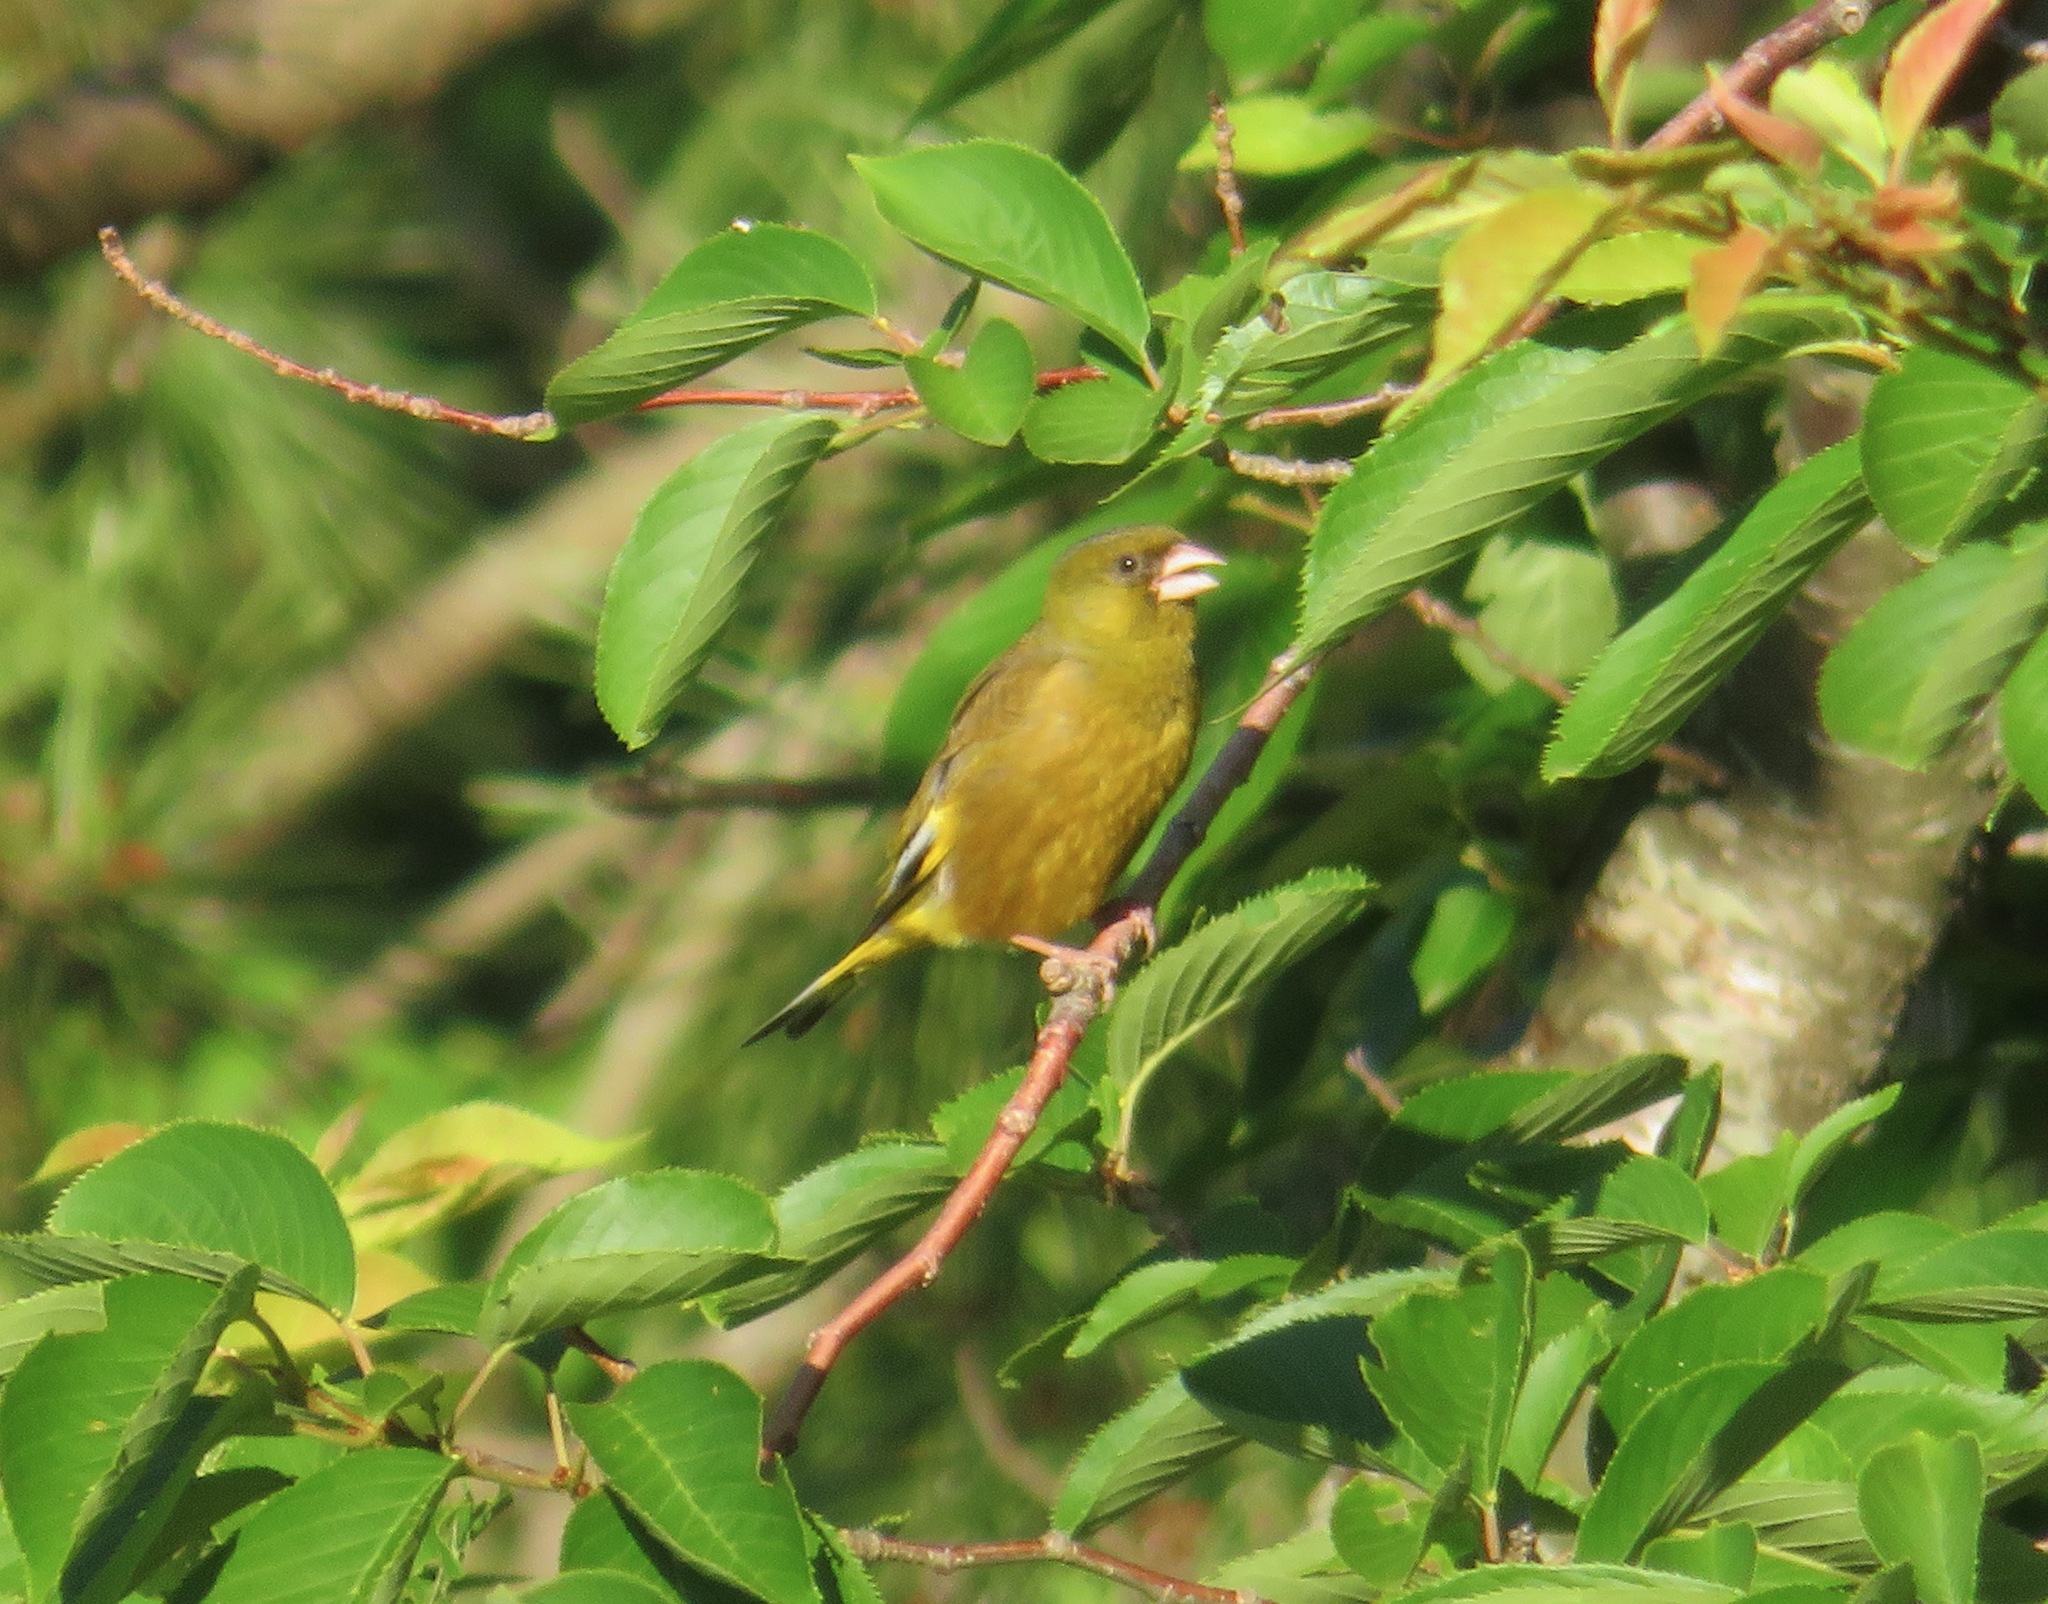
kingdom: Plantae
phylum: Tracheophyta
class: Liliopsida
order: Poales
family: Poaceae
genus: Chloris
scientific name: Chloris sinica
